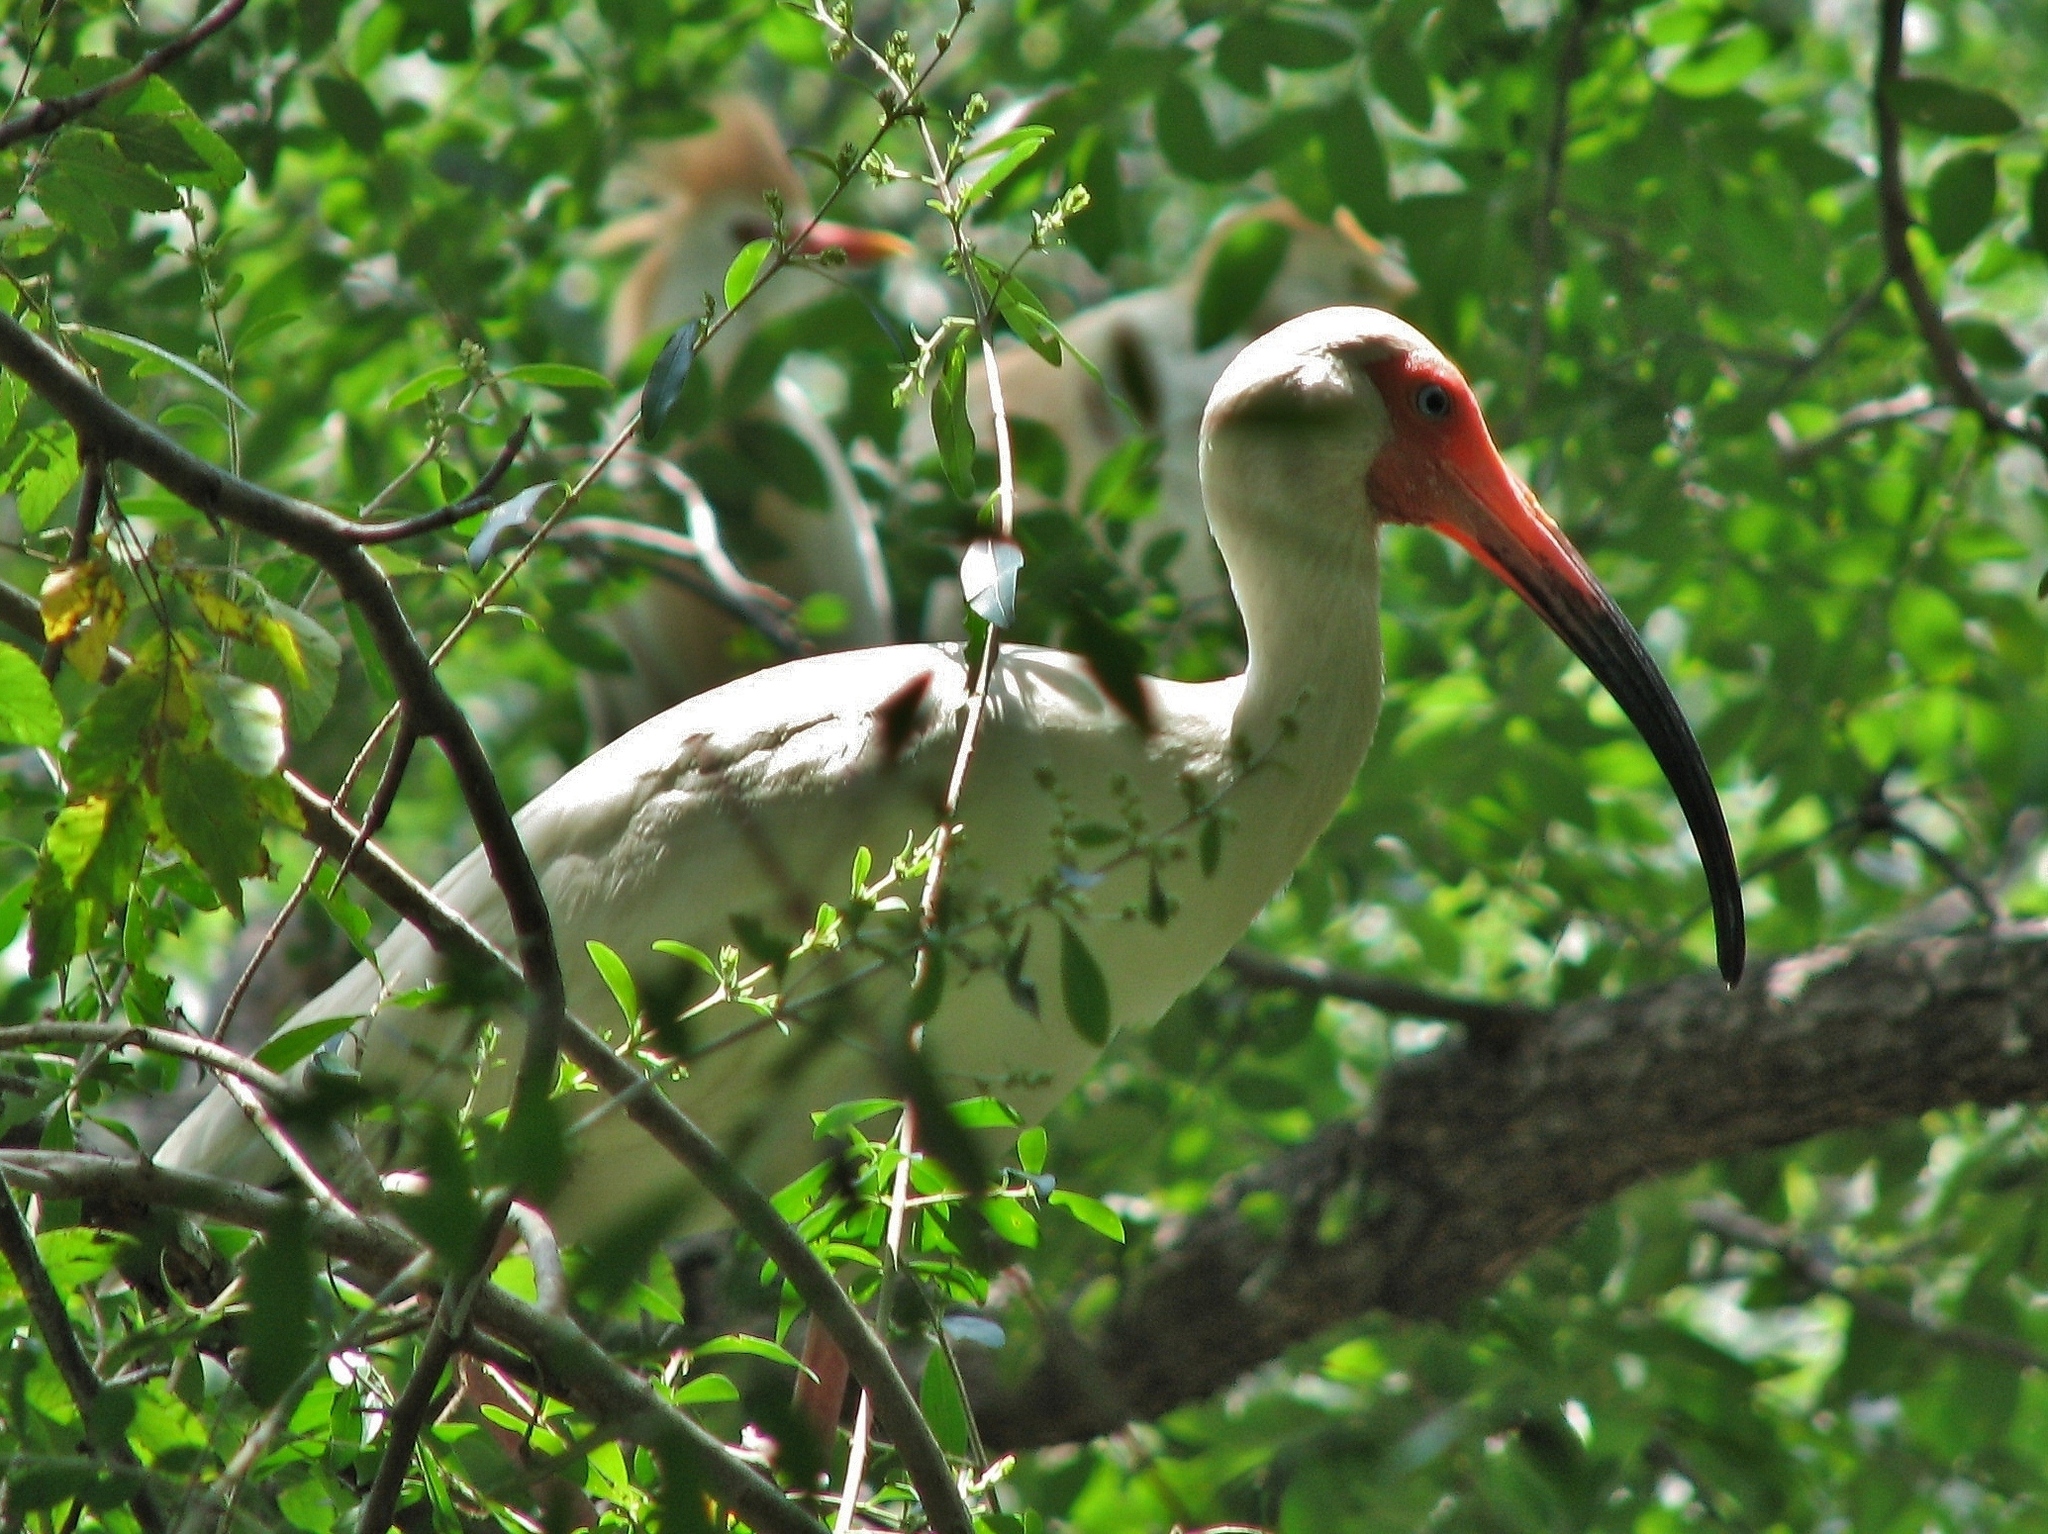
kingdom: Animalia
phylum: Chordata
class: Aves
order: Pelecaniformes
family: Threskiornithidae
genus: Eudocimus
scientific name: Eudocimus albus
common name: White ibis
